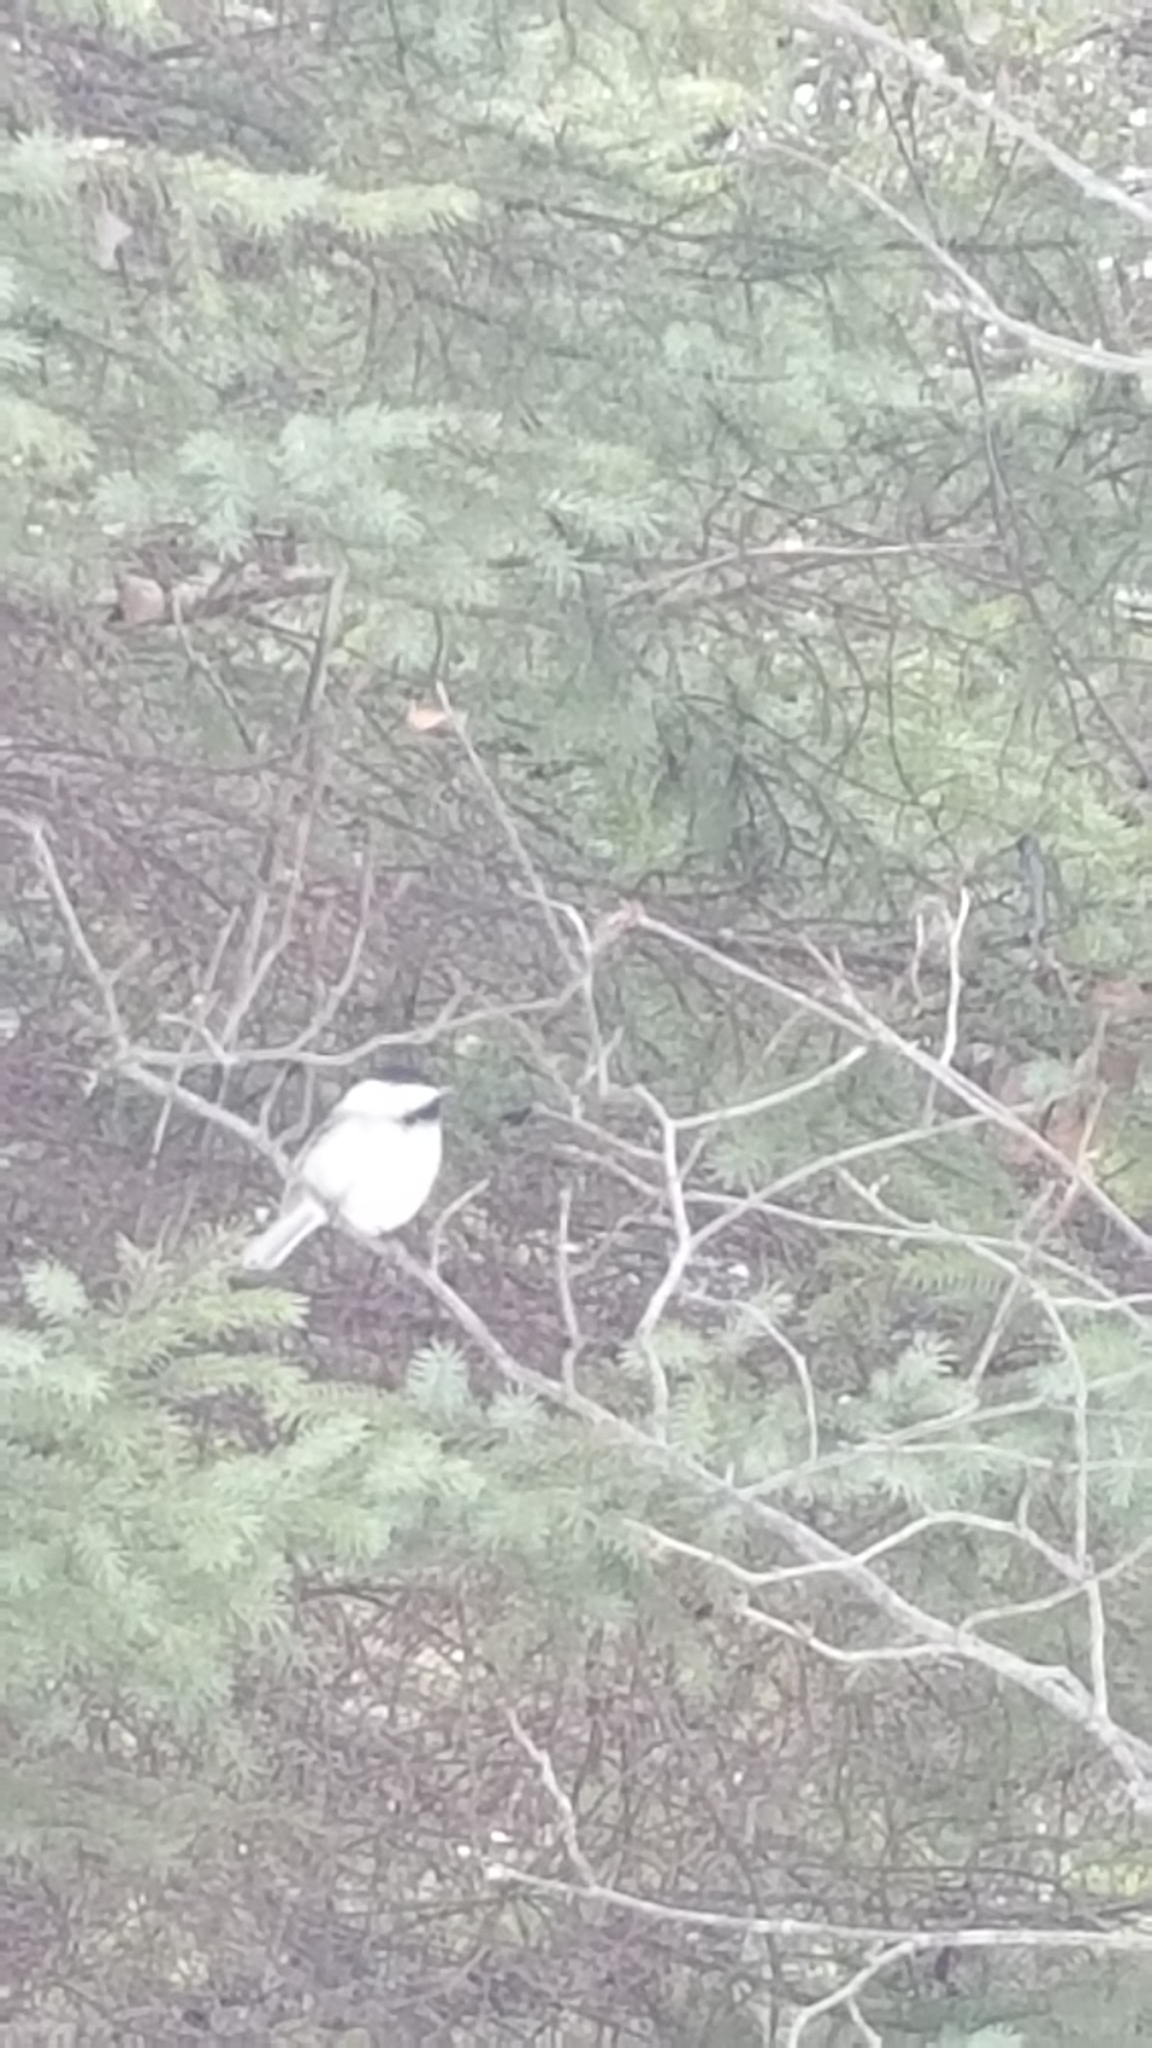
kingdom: Animalia
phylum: Chordata
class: Aves
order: Passeriformes
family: Paridae
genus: Poecile
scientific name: Poecile atricapillus
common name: Black-capped chickadee
